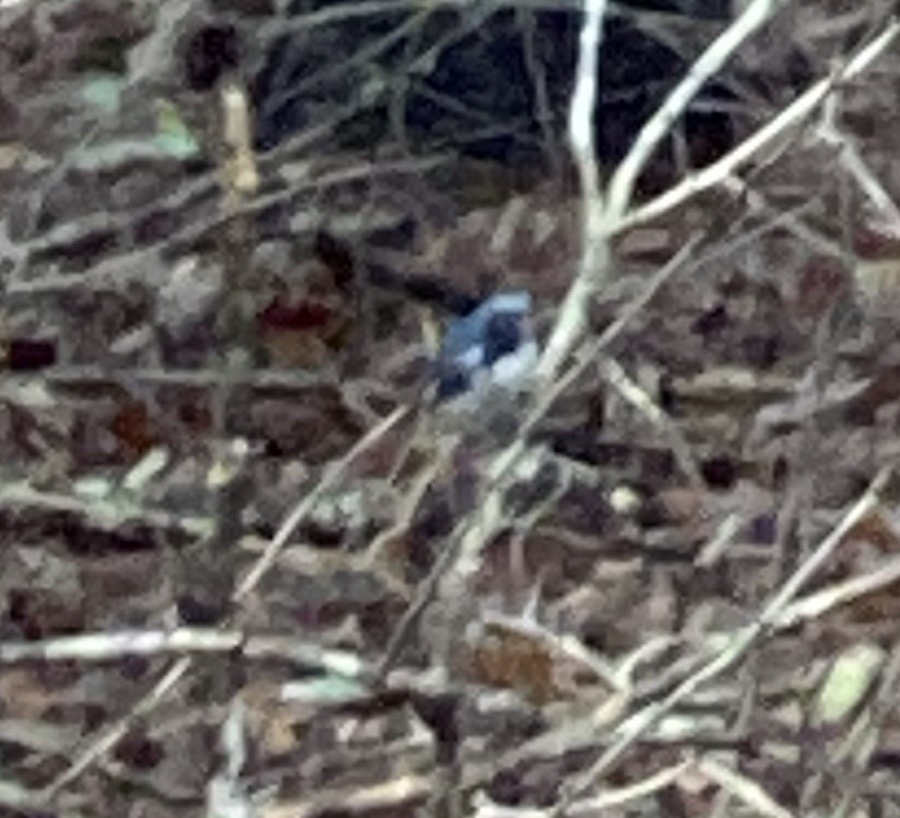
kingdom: Animalia
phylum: Chordata
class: Aves
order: Passeriformes
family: Parulidae
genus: Setophaga
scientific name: Setophaga caerulescens
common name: Black-throated blue warbler
